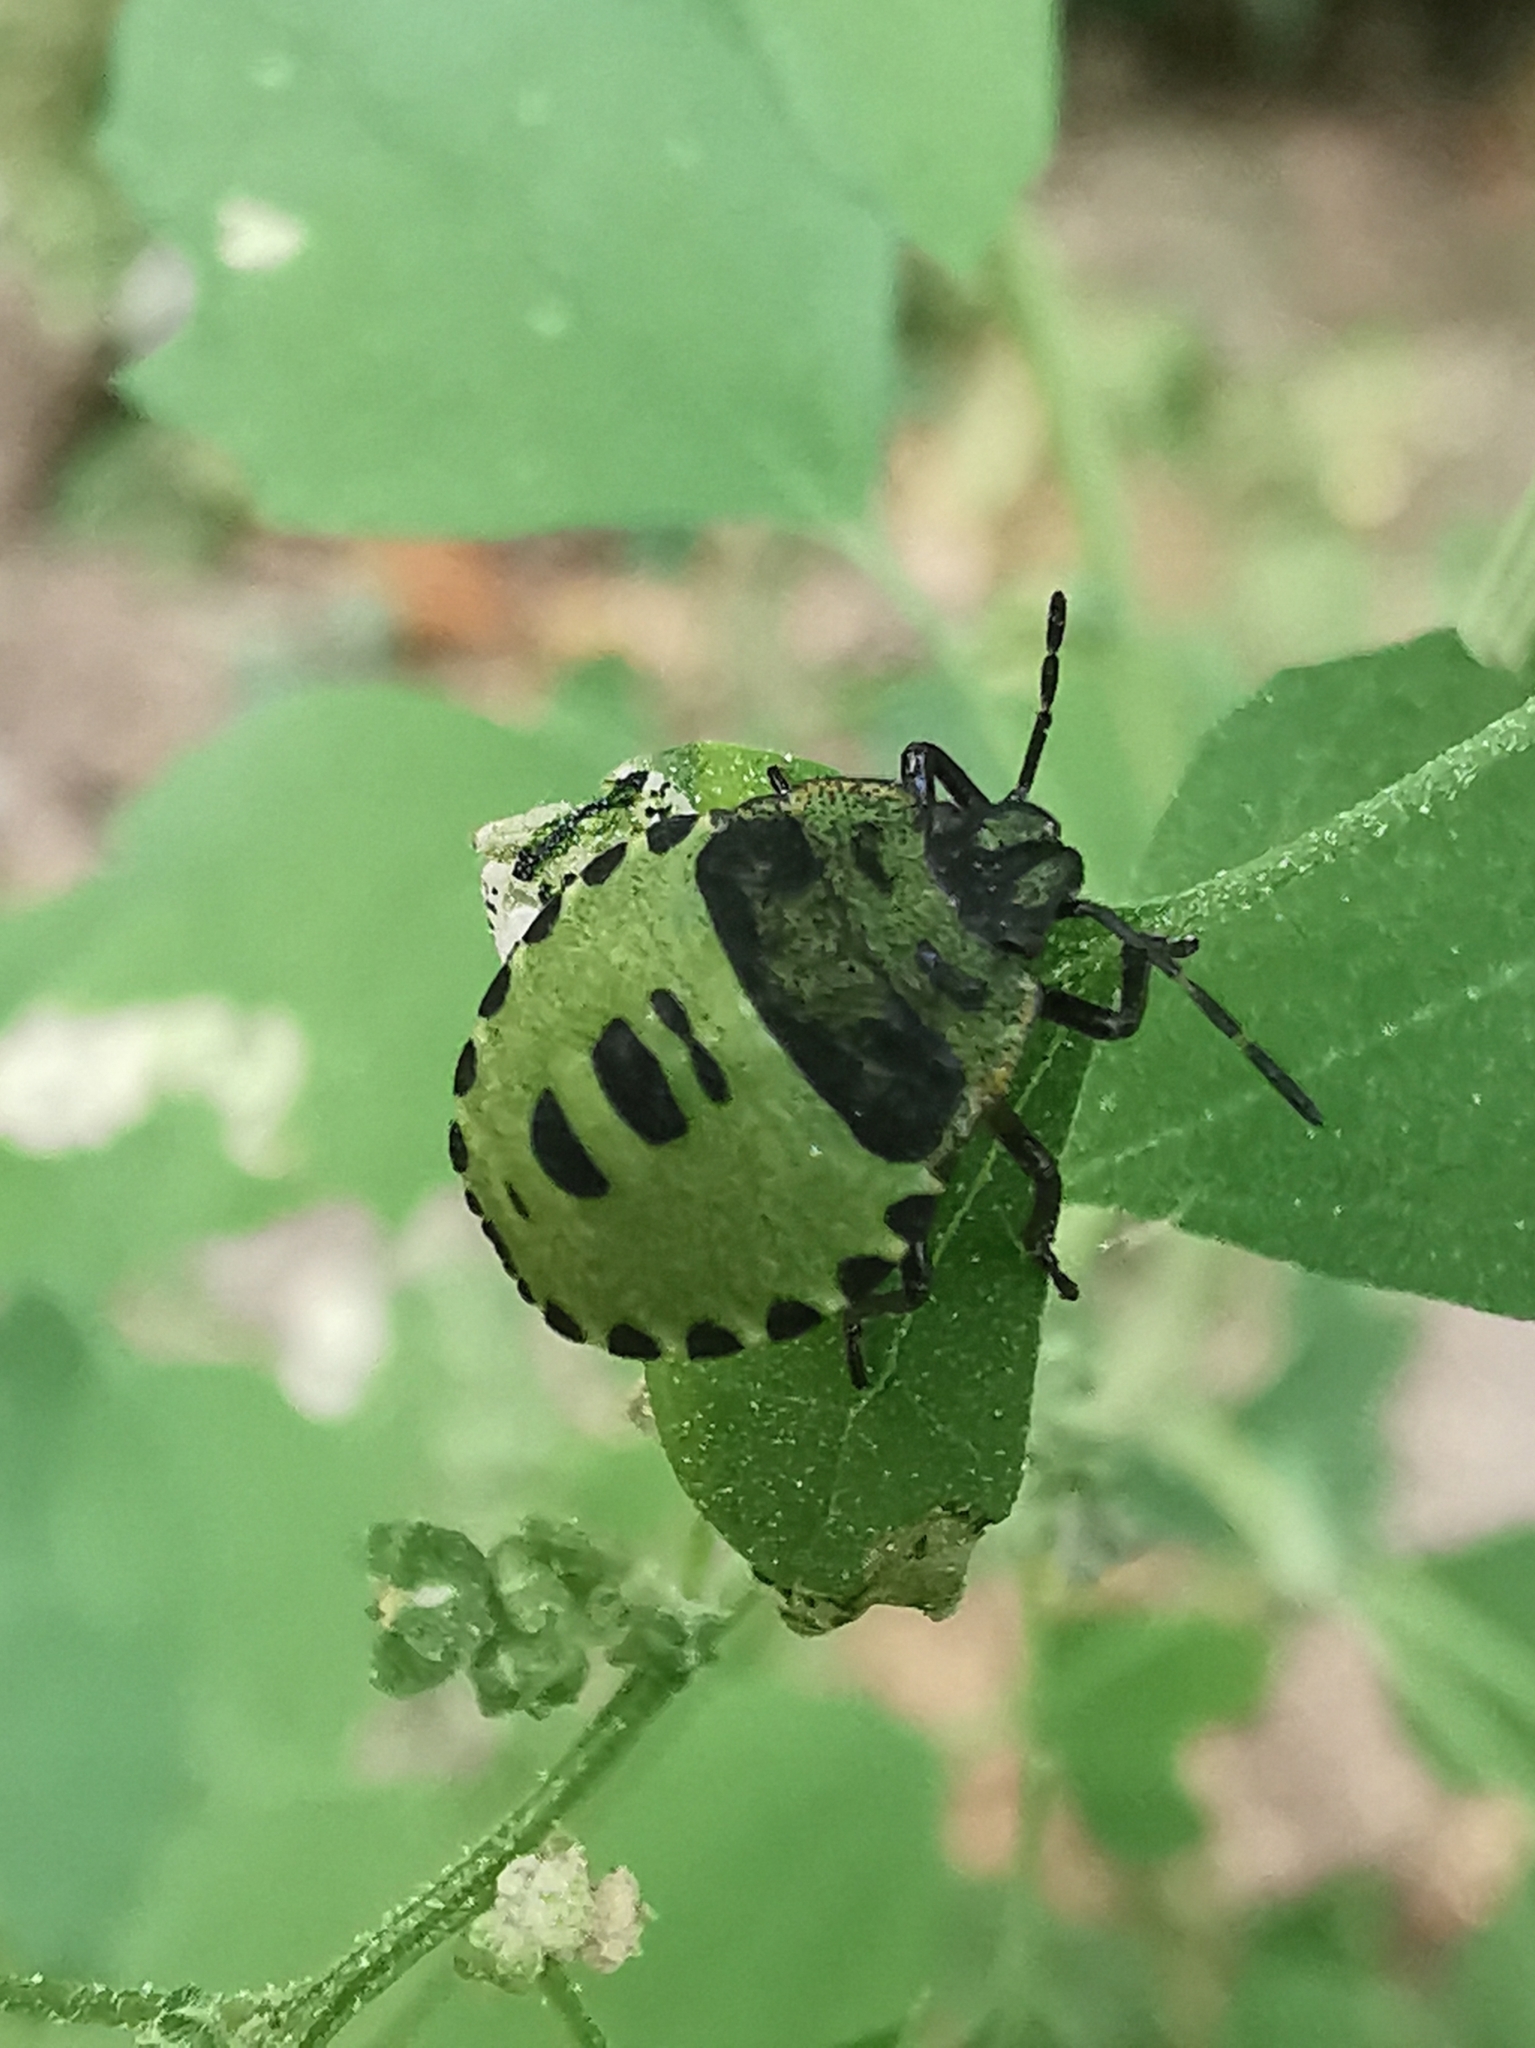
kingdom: Animalia
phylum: Arthropoda
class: Insecta
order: Hemiptera
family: Pentatomidae
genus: Palomena
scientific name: Palomena prasina
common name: Green shieldbug
